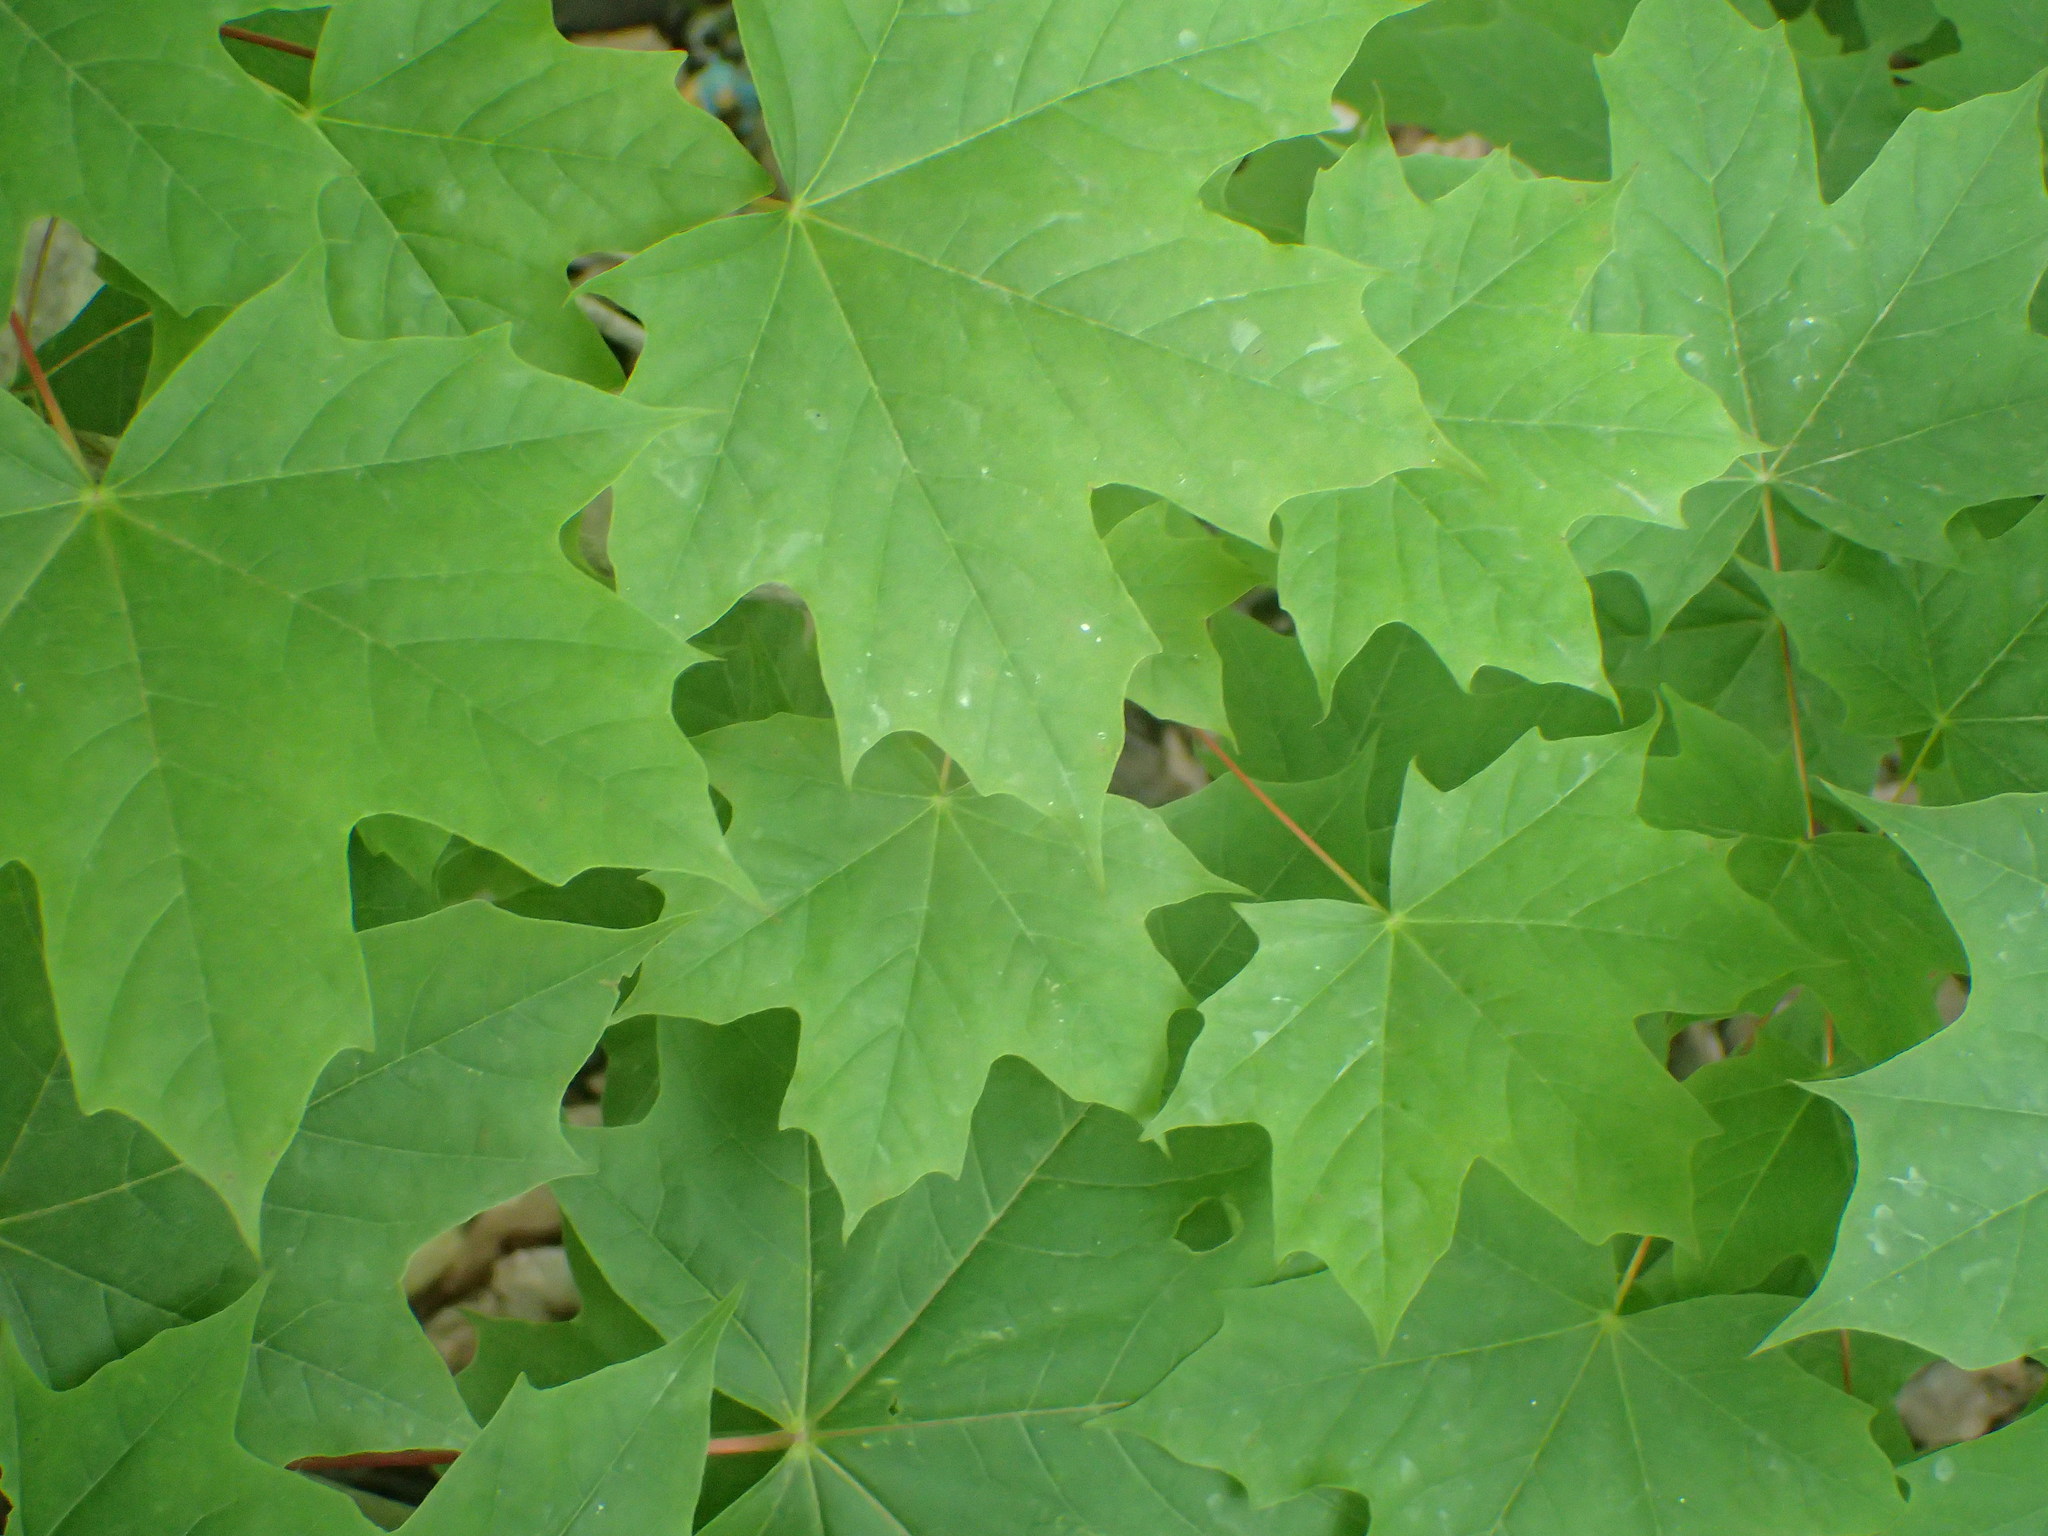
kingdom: Plantae
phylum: Tracheophyta
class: Magnoliopsida
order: Sapindales
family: Sapindaceae
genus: Acer
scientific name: Acer platanoides
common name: Norway maple
